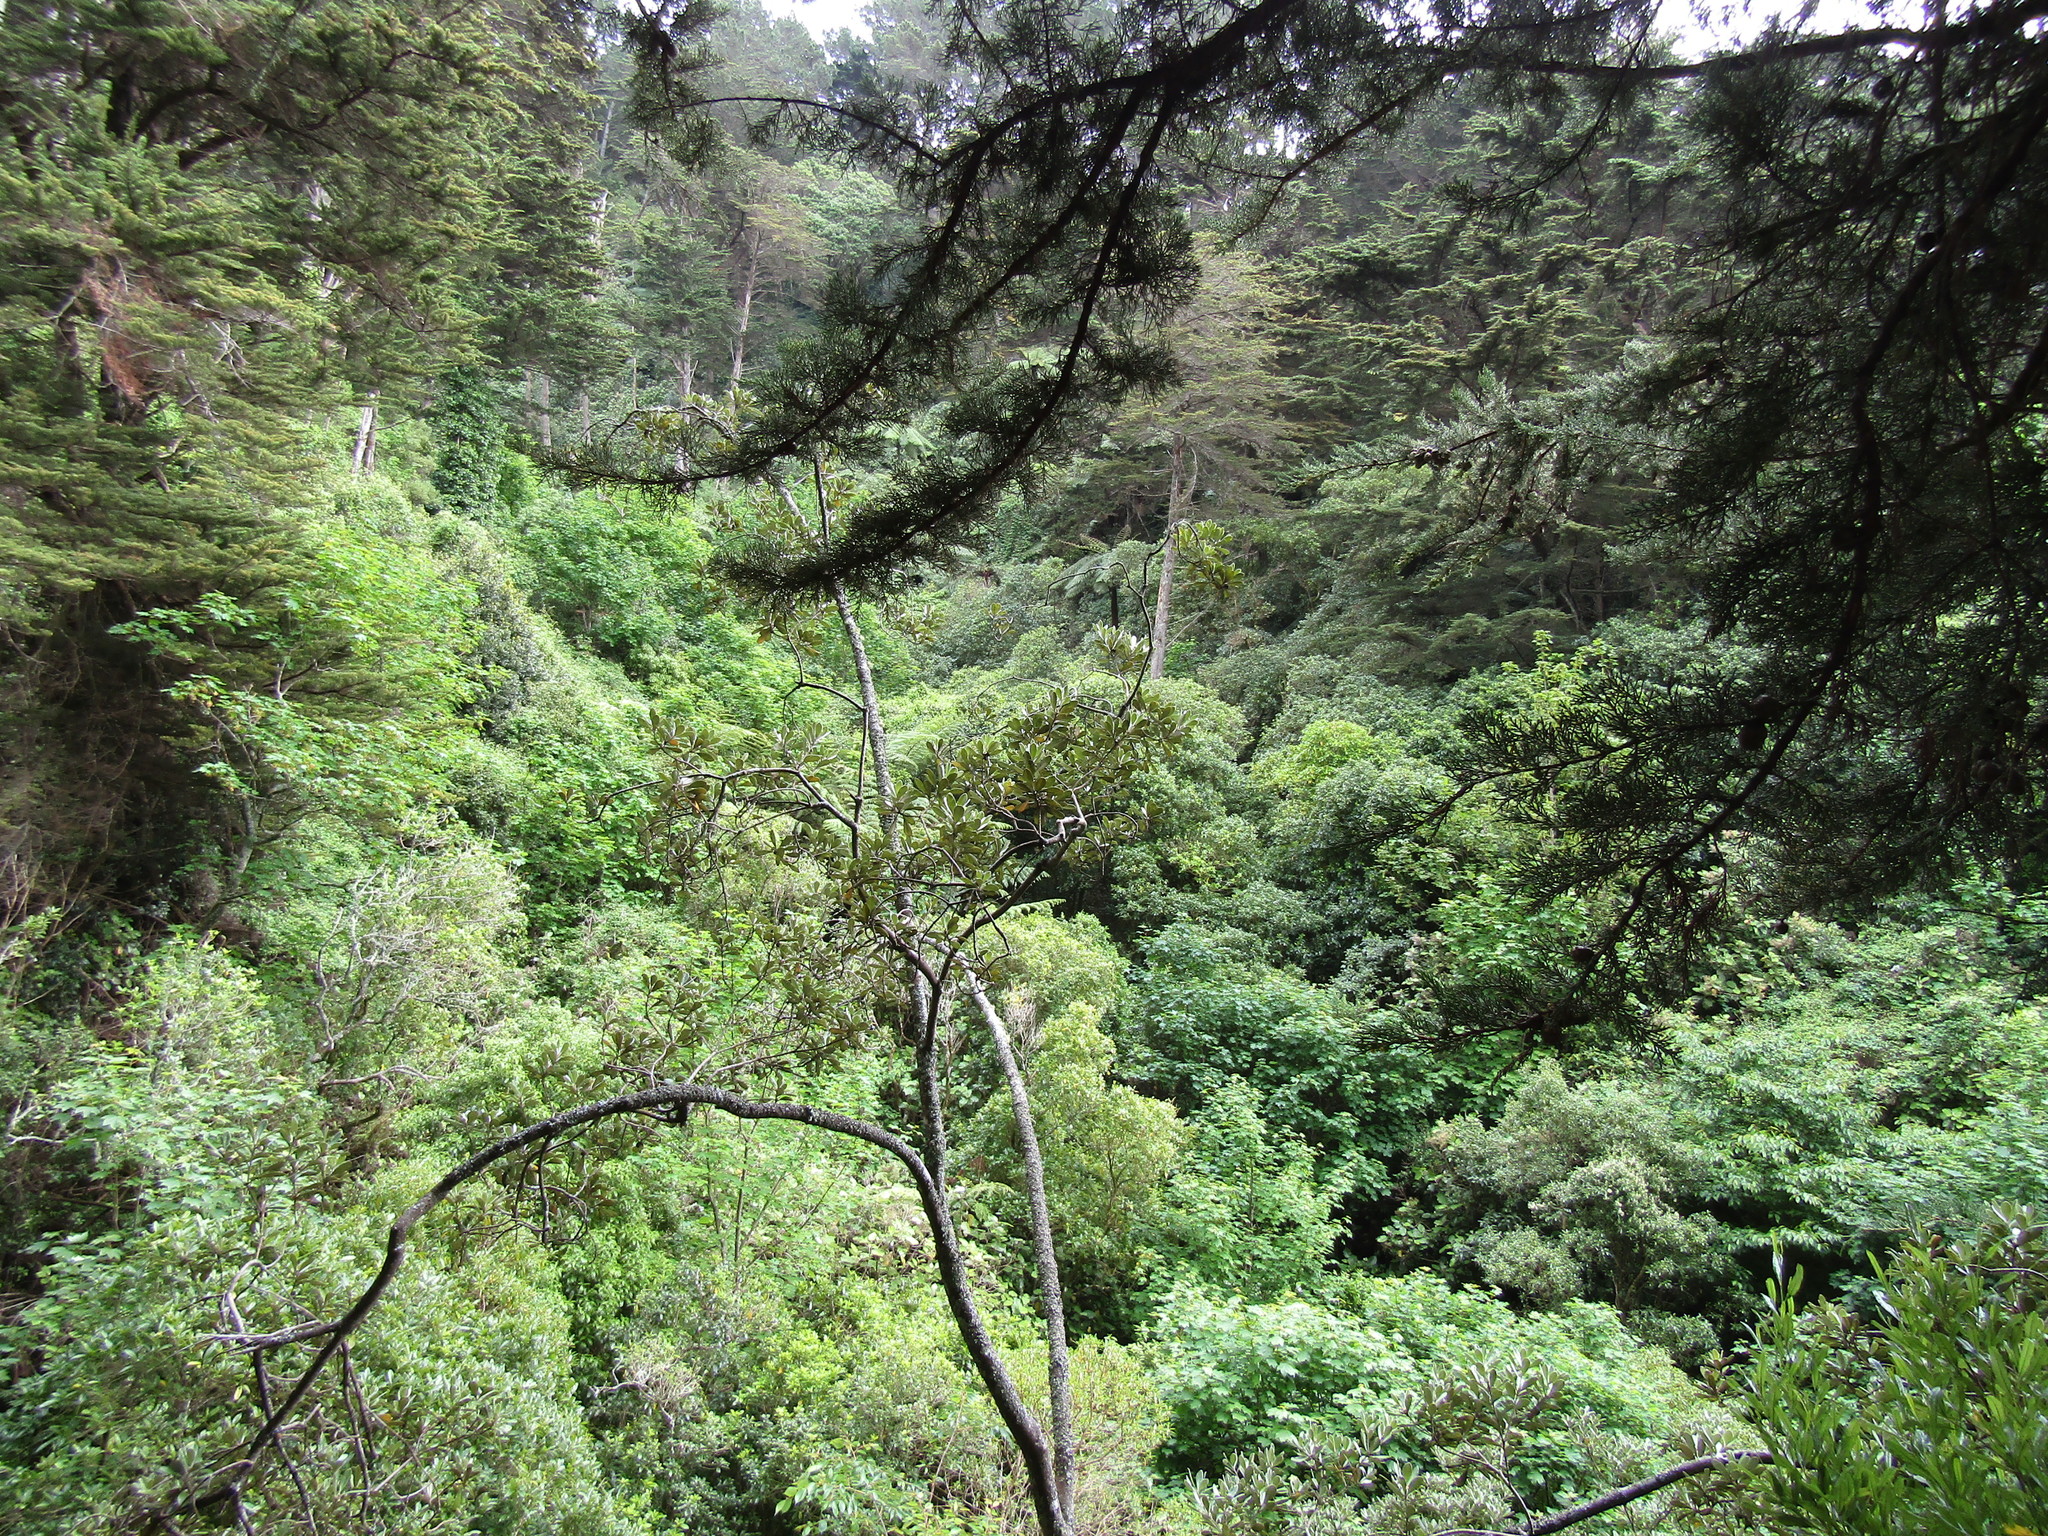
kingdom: Plantae
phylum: Tracheophyta
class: Magnoliopsida
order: Sapindales
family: Sapindaceae
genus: Acer
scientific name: Acer pseudoplatanus
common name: Sycamore
